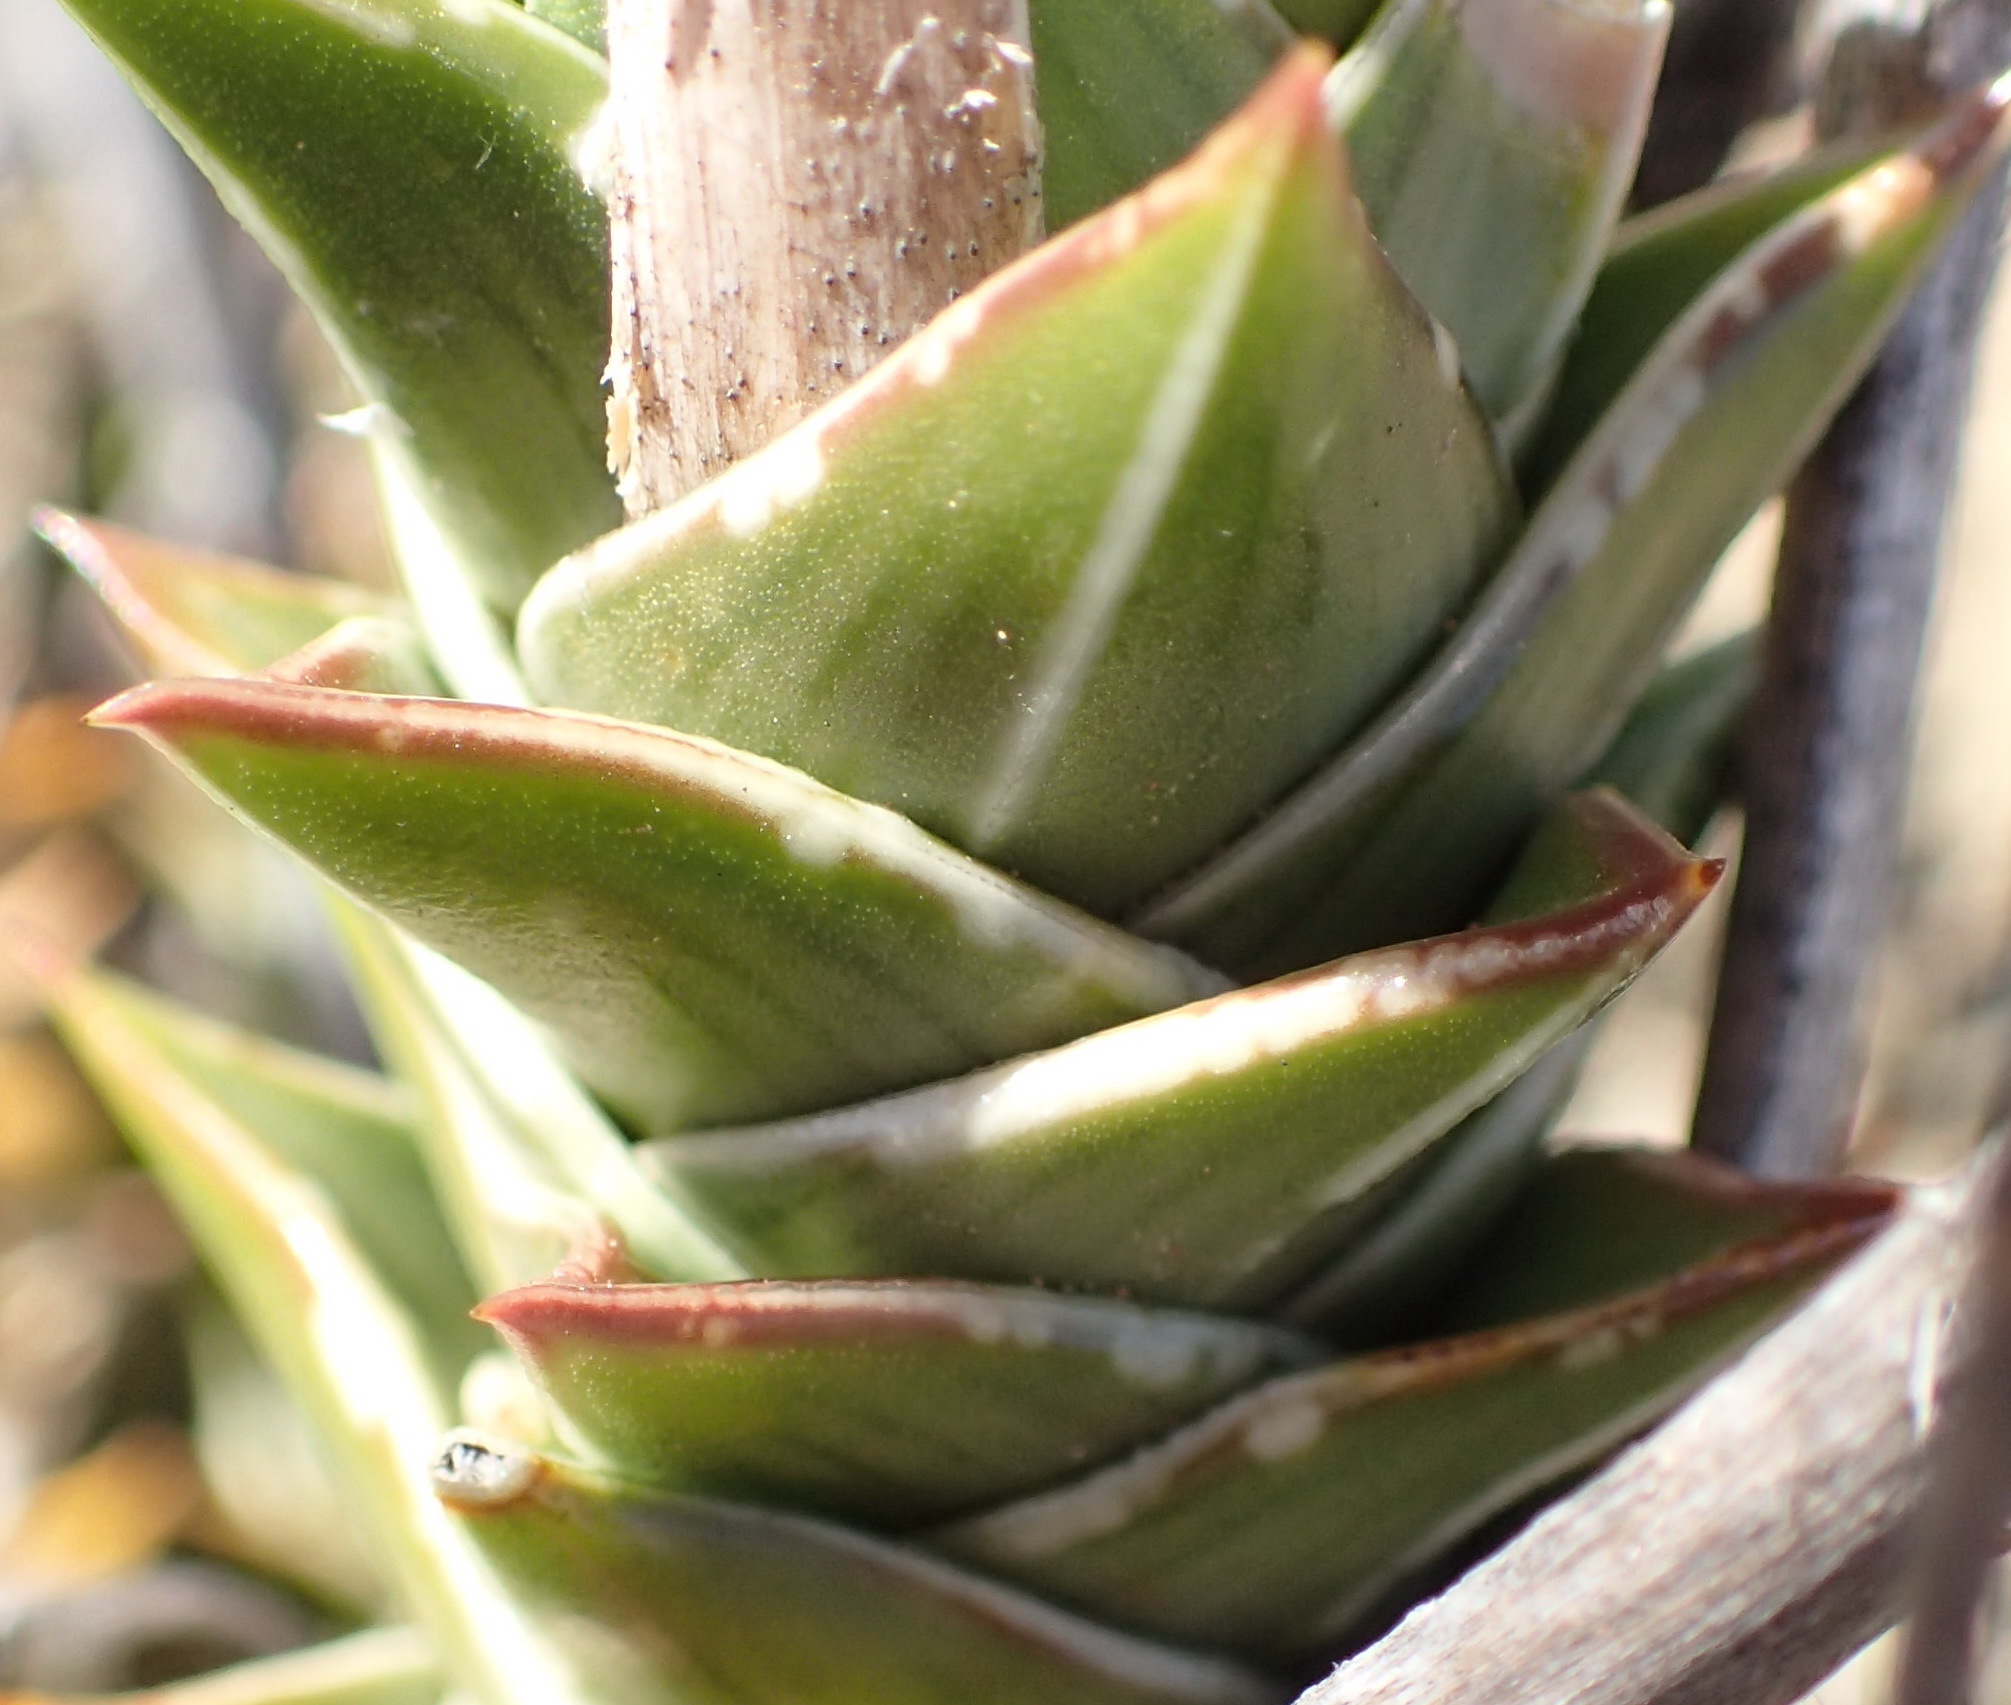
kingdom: Plantae
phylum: Tracheophyta
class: Liliopsida
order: Asparagales
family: Asphodelaceae
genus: Astroloba
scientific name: Astroloba robusta
